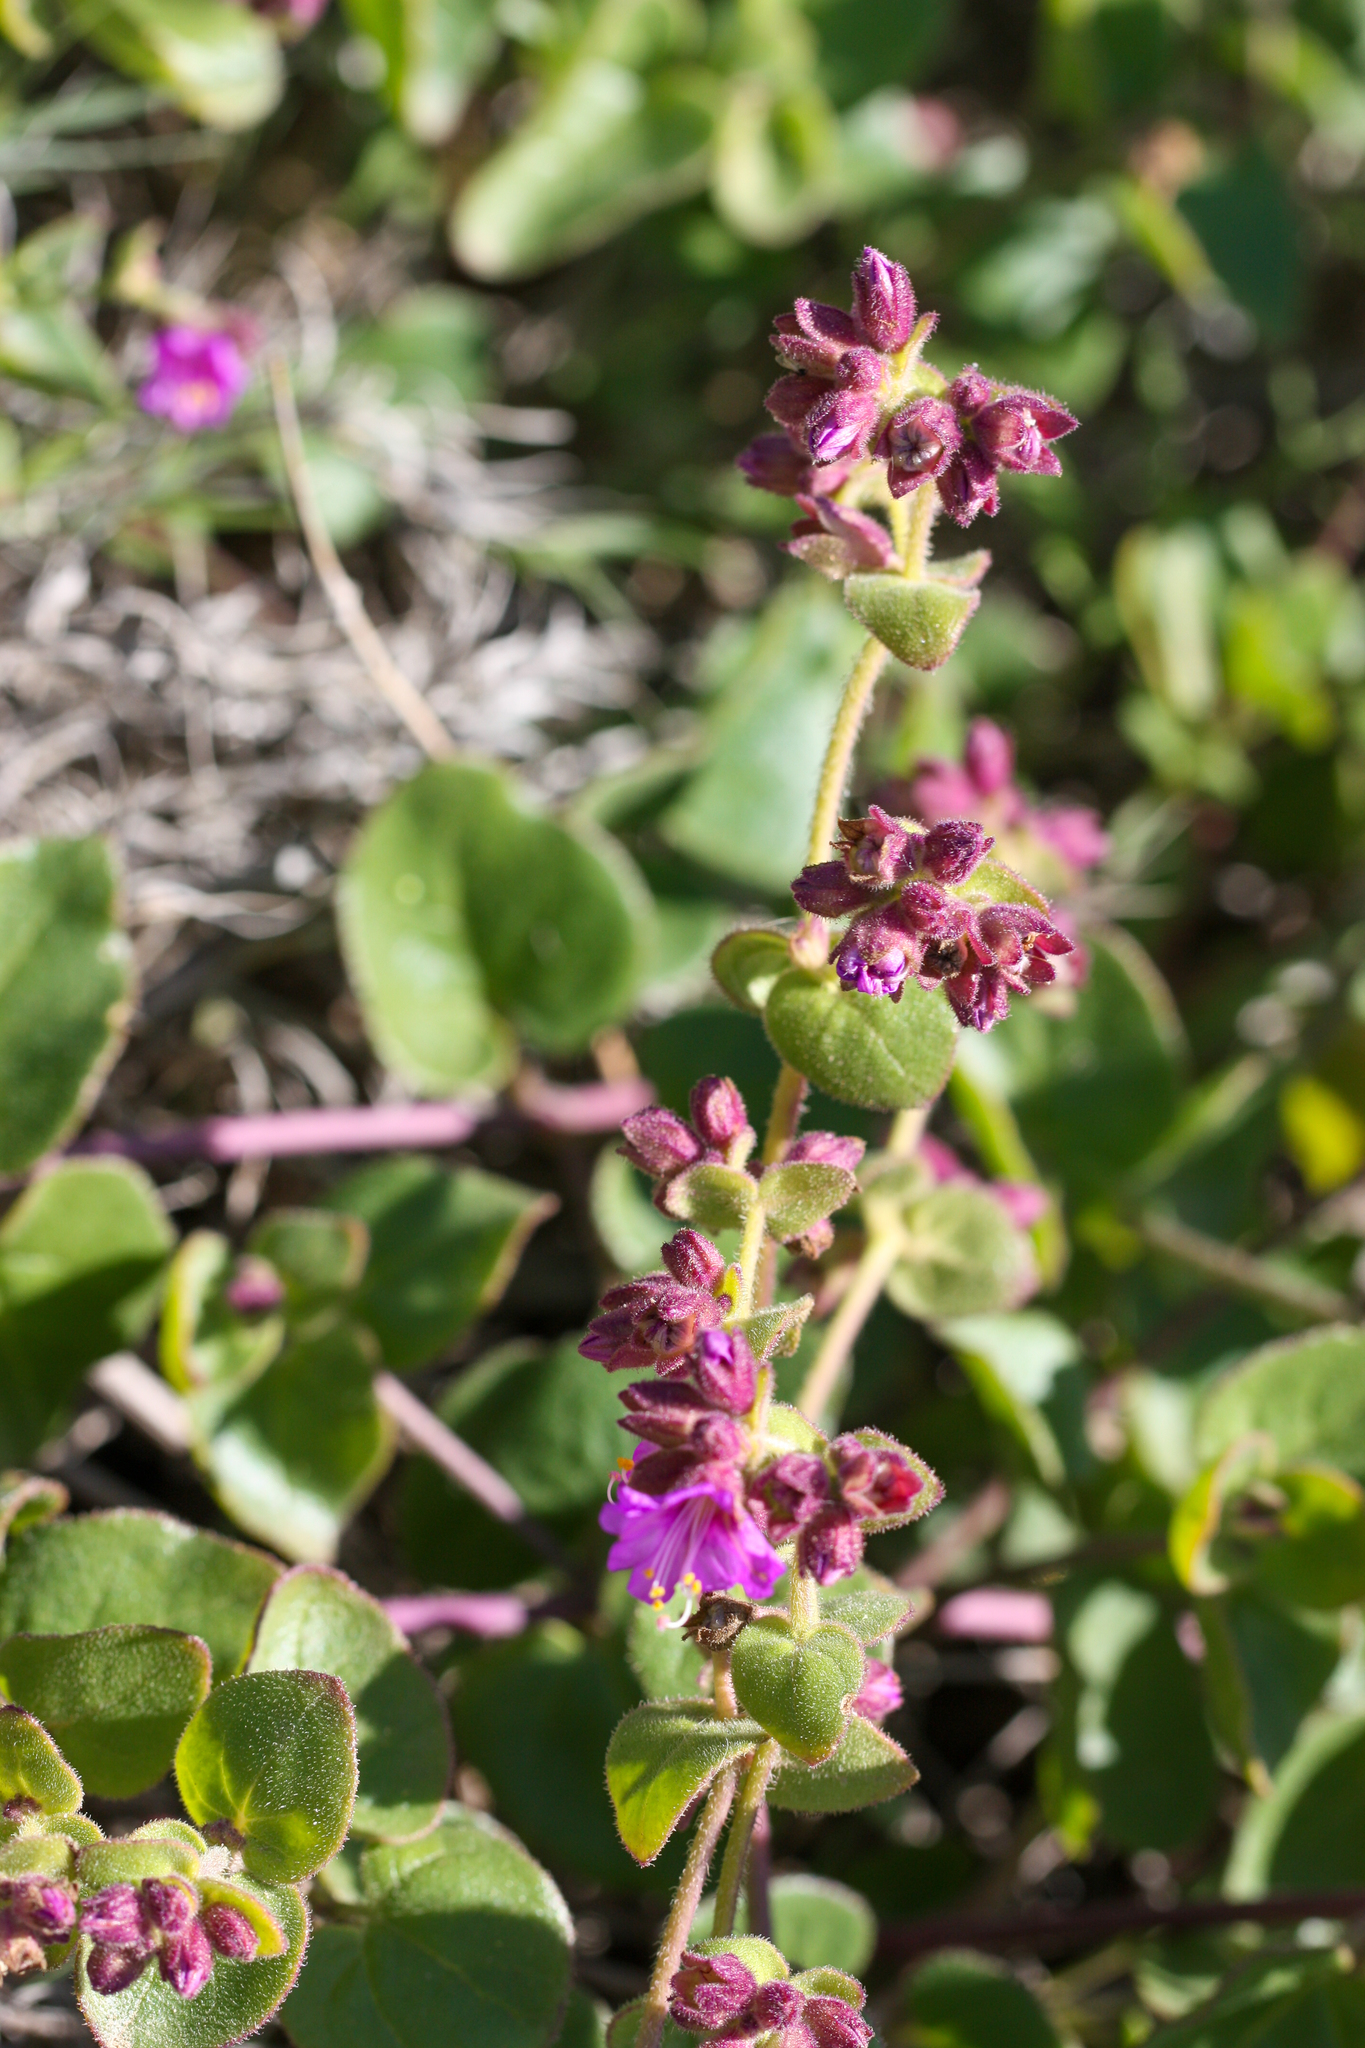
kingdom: Plantae
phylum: Tracheophyta
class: Magnoliopsida
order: Caryophyllales
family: Nyctaginaceae
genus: Mirabilis
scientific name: Mirabilis laevis
